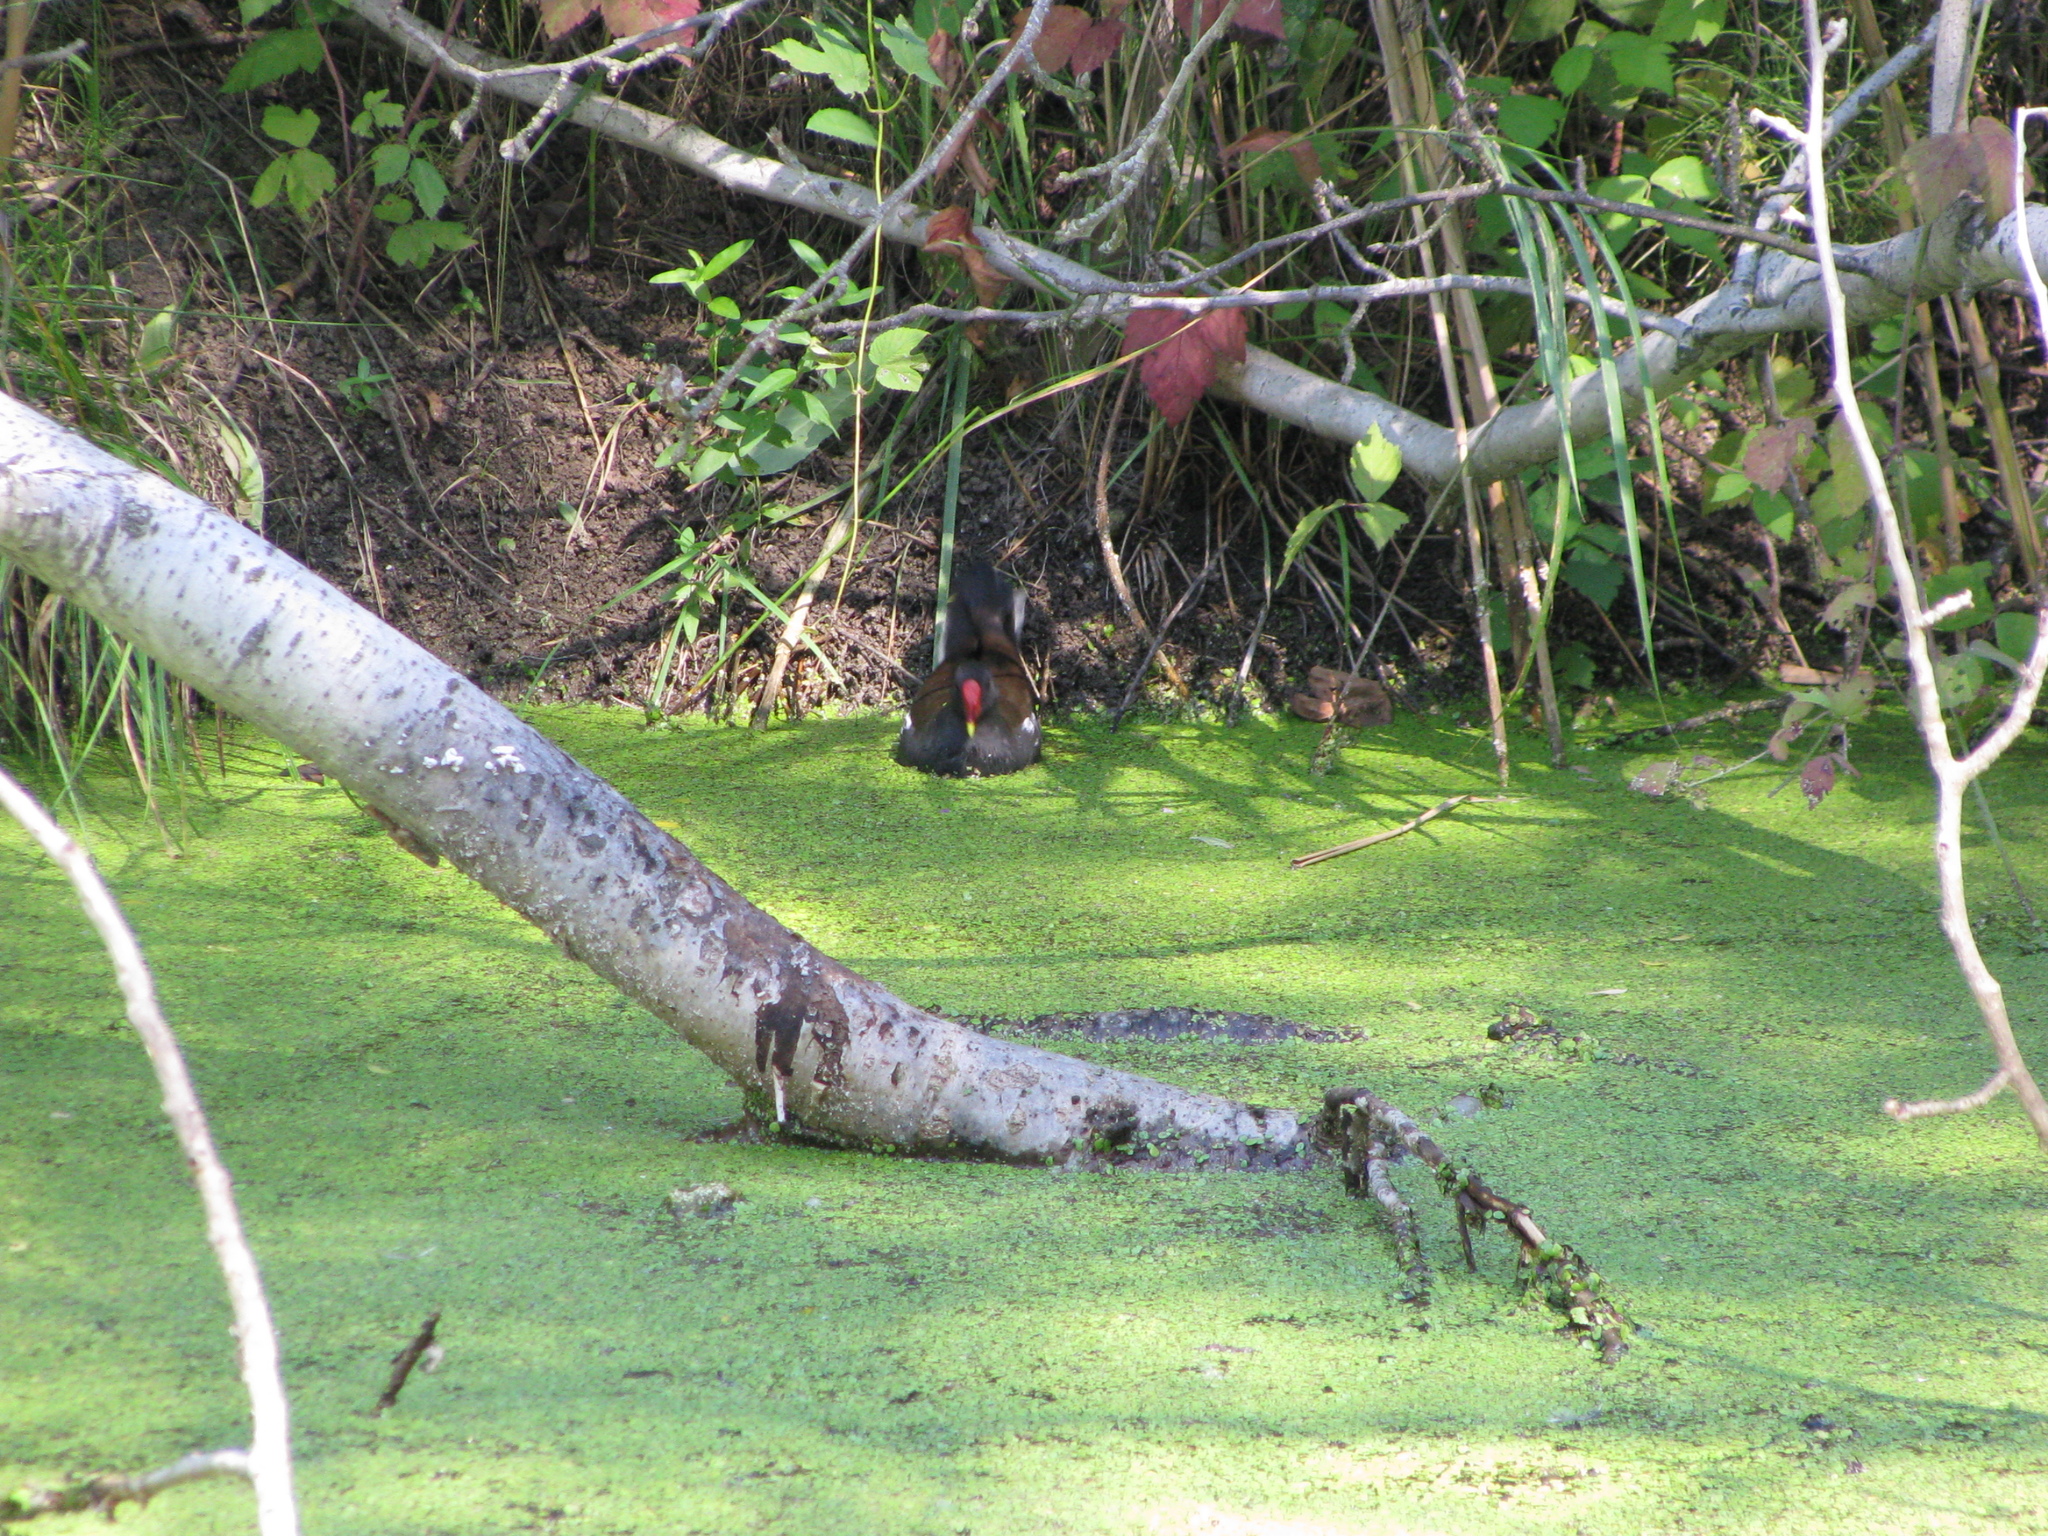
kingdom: Animalia
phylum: Chordata
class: Aves
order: Gruiformes
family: Rallidae
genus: Gallinula
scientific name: Gallinula chloropus
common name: Common moorhen
